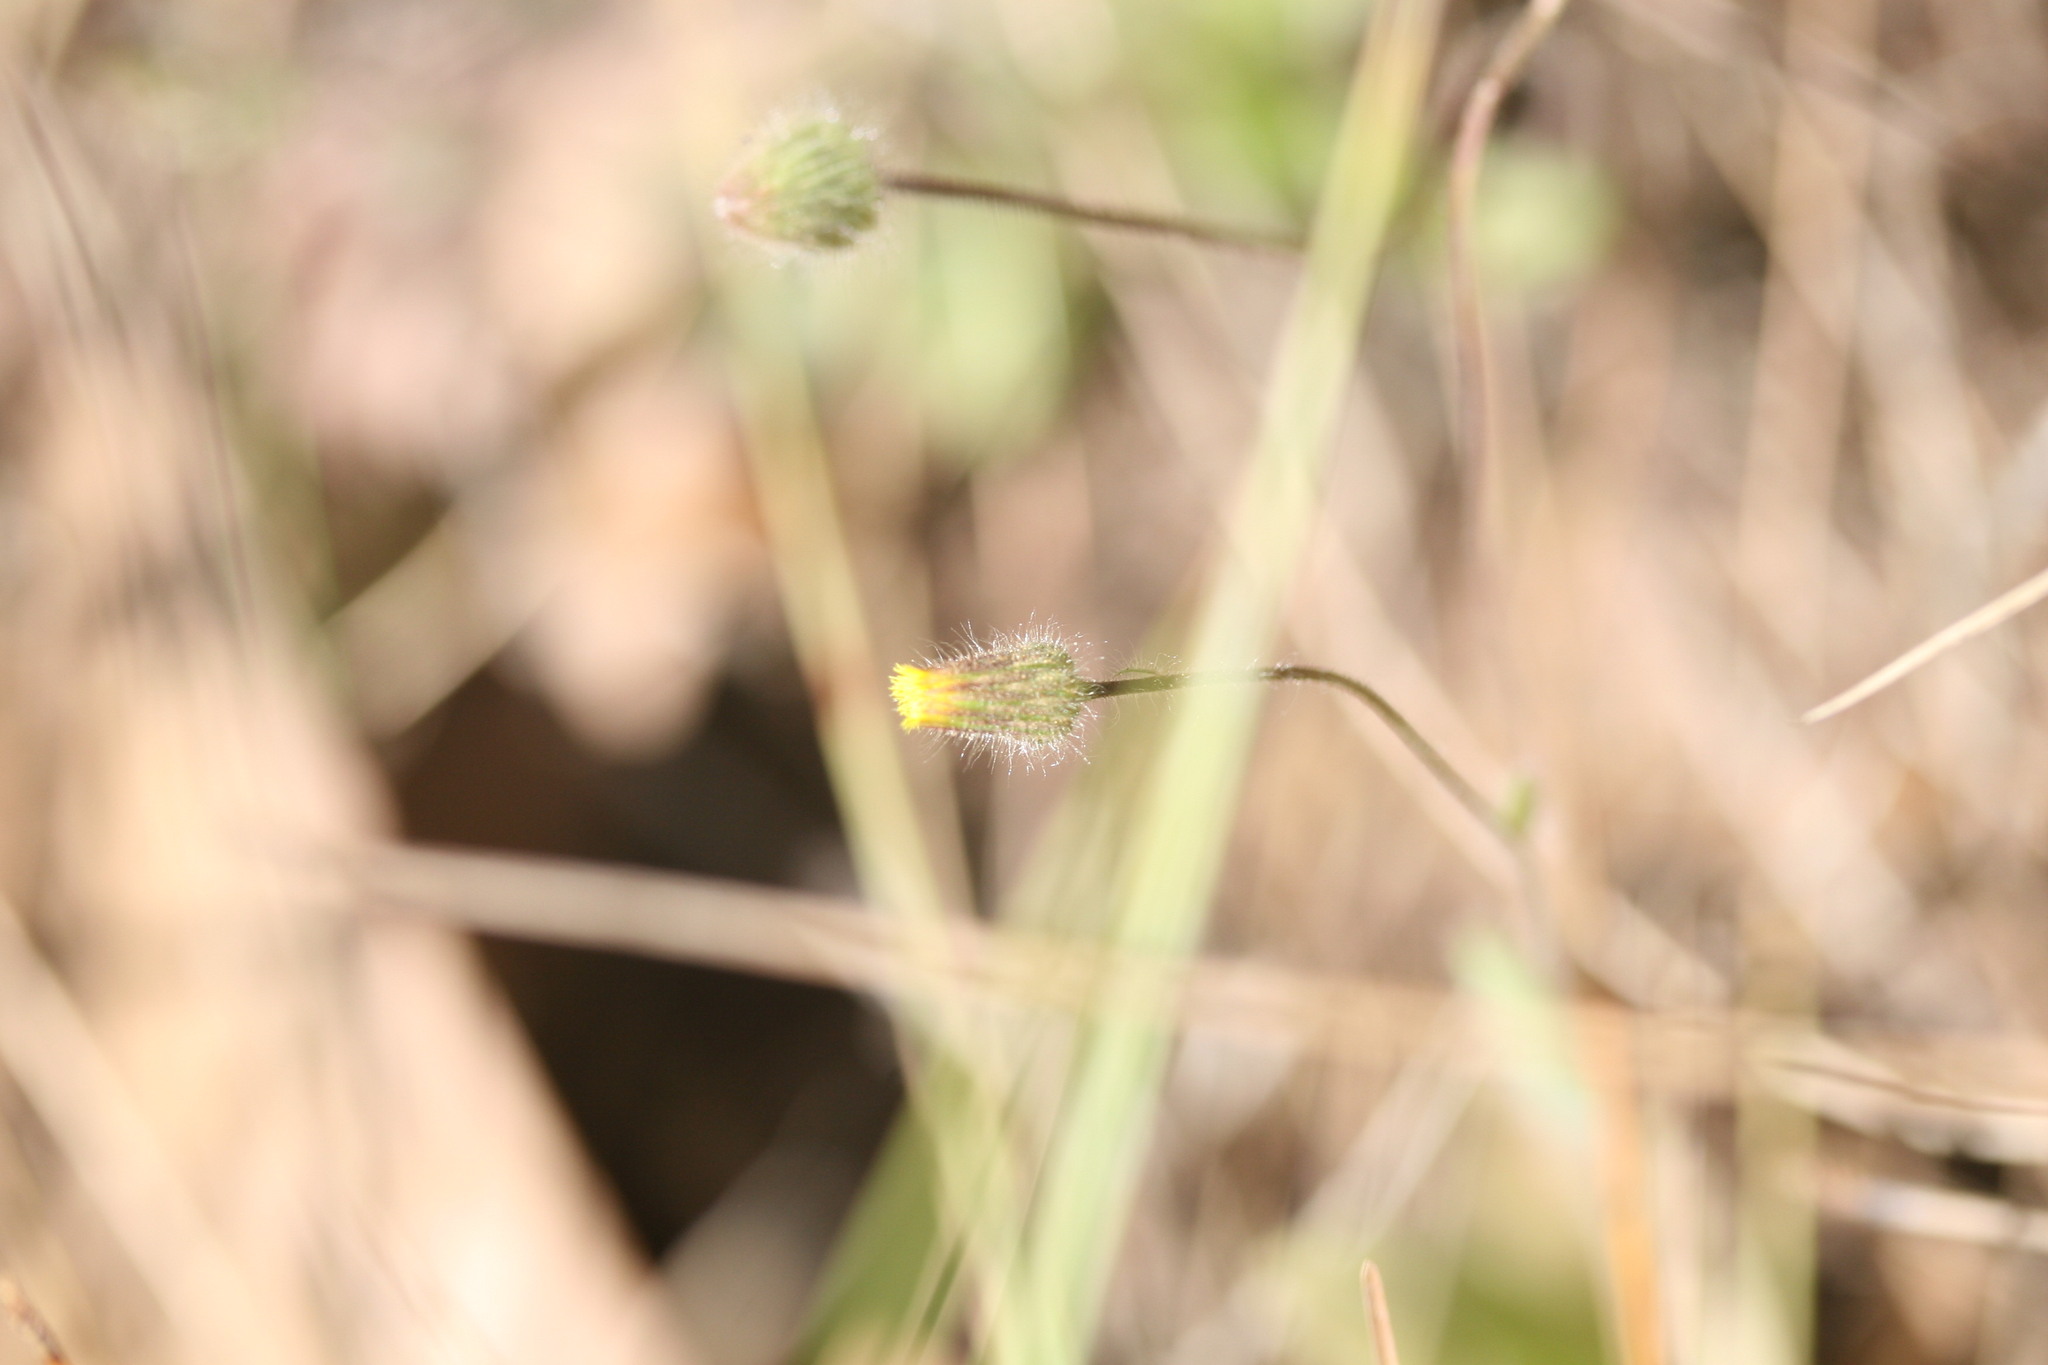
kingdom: Plantae
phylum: Tracheophyta
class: Magnoliopsida
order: Asterales
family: Asteraceae
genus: Blumea
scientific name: Blumea integrifolia
